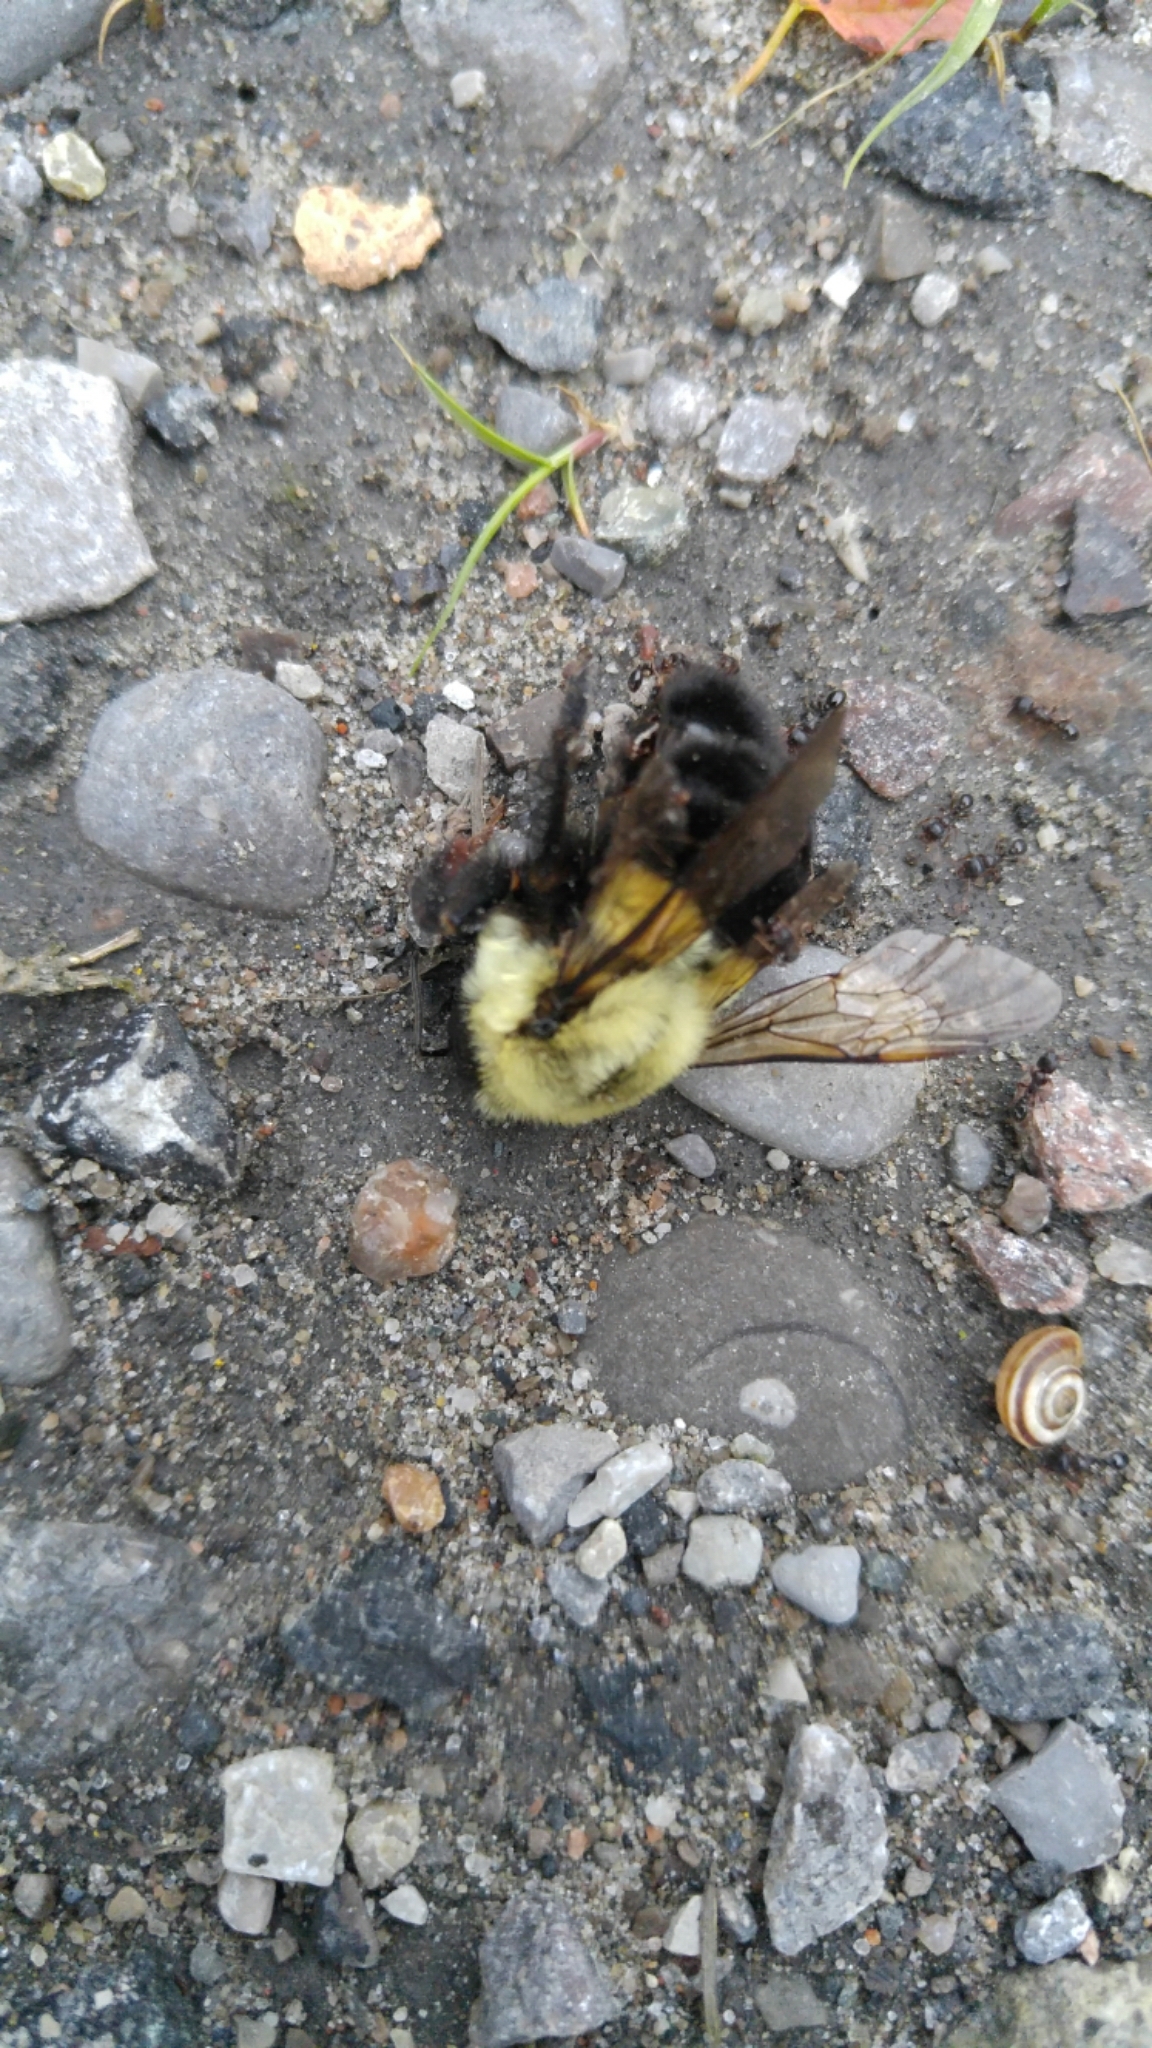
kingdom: Animalia
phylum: Arthropoda
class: Insecta
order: Hymenoptera
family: Apidae
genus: Bombus
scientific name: Bombus impatiens
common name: Common eastern bumble bee
